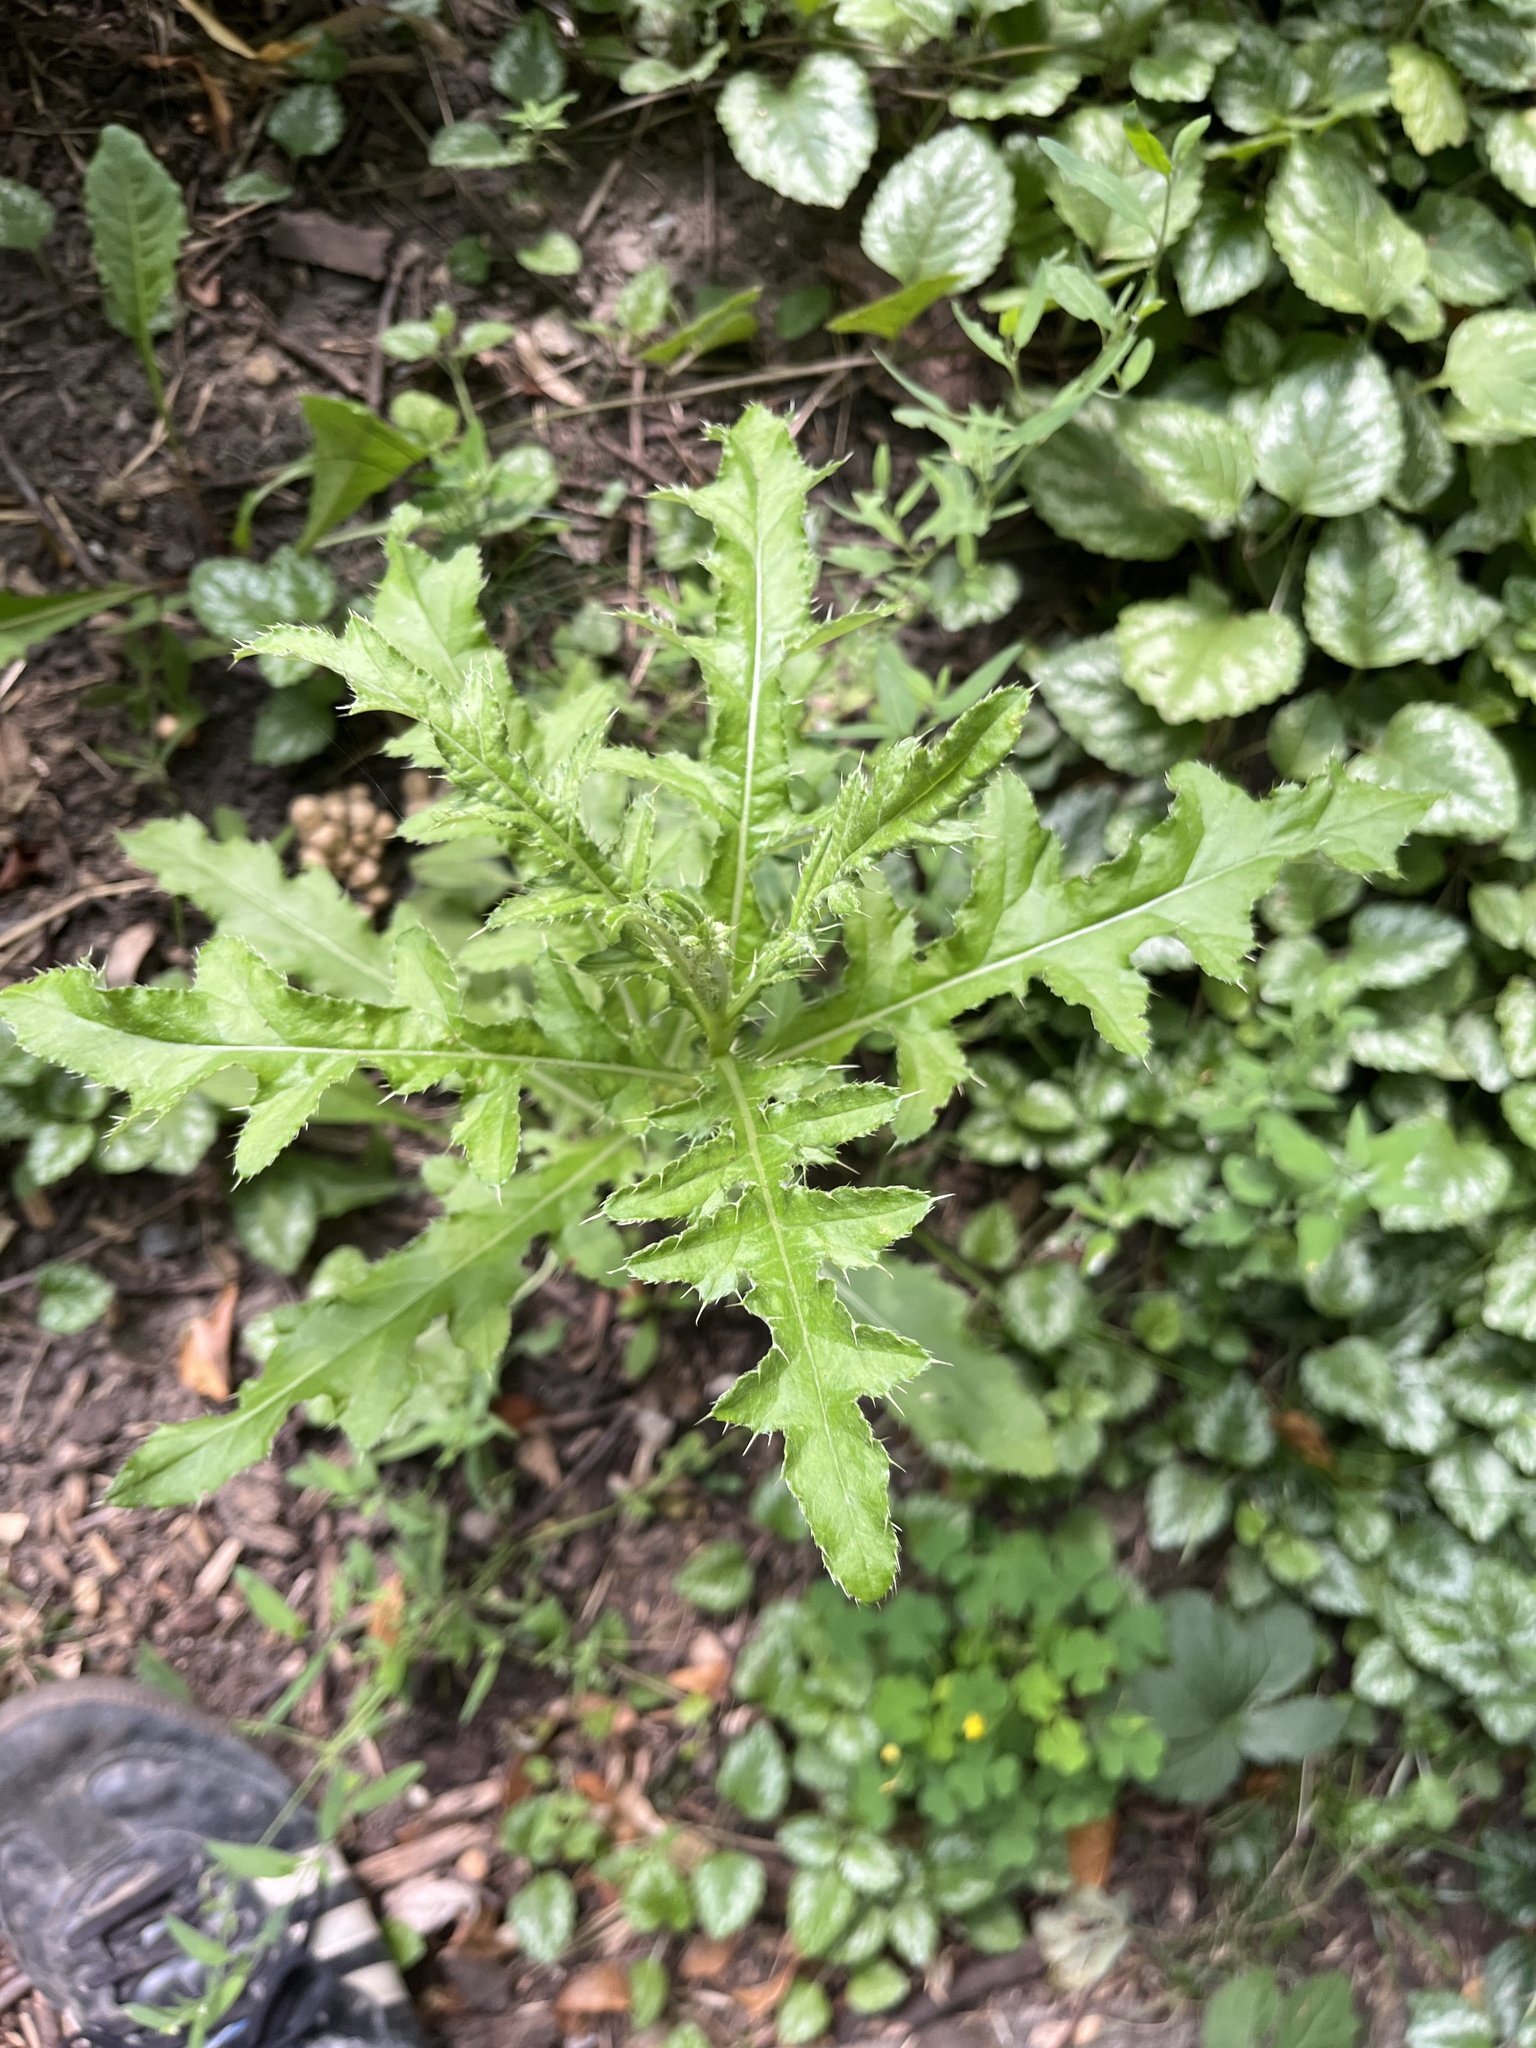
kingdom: Plantae
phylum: Tracheophyta
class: Magnoliopsida
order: Asterales
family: Asteraceae
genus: Cirsium
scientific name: Cirsium arvense
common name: Creeping thistle
